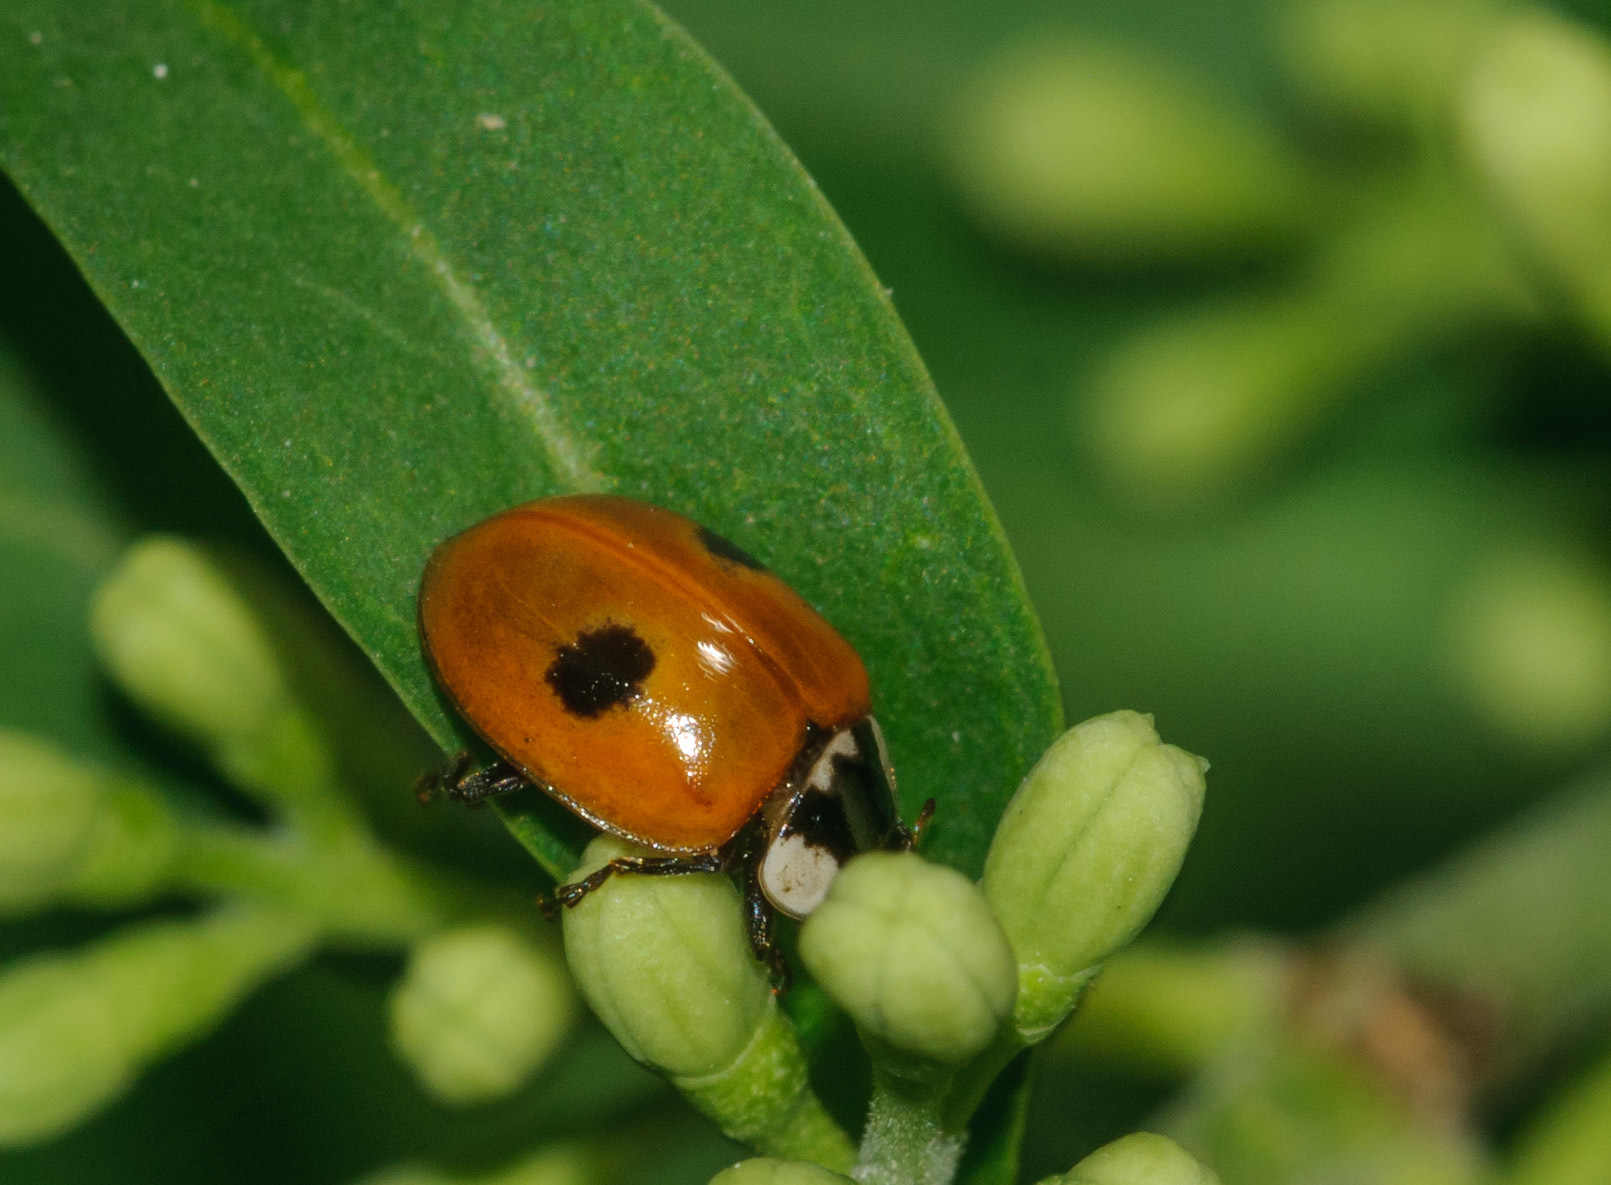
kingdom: Animalia
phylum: Arthropoda
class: Insecta
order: Coleoptera
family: Coccinellidae
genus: Adalia
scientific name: Adalia bipunctata
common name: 2-spot ladybird
